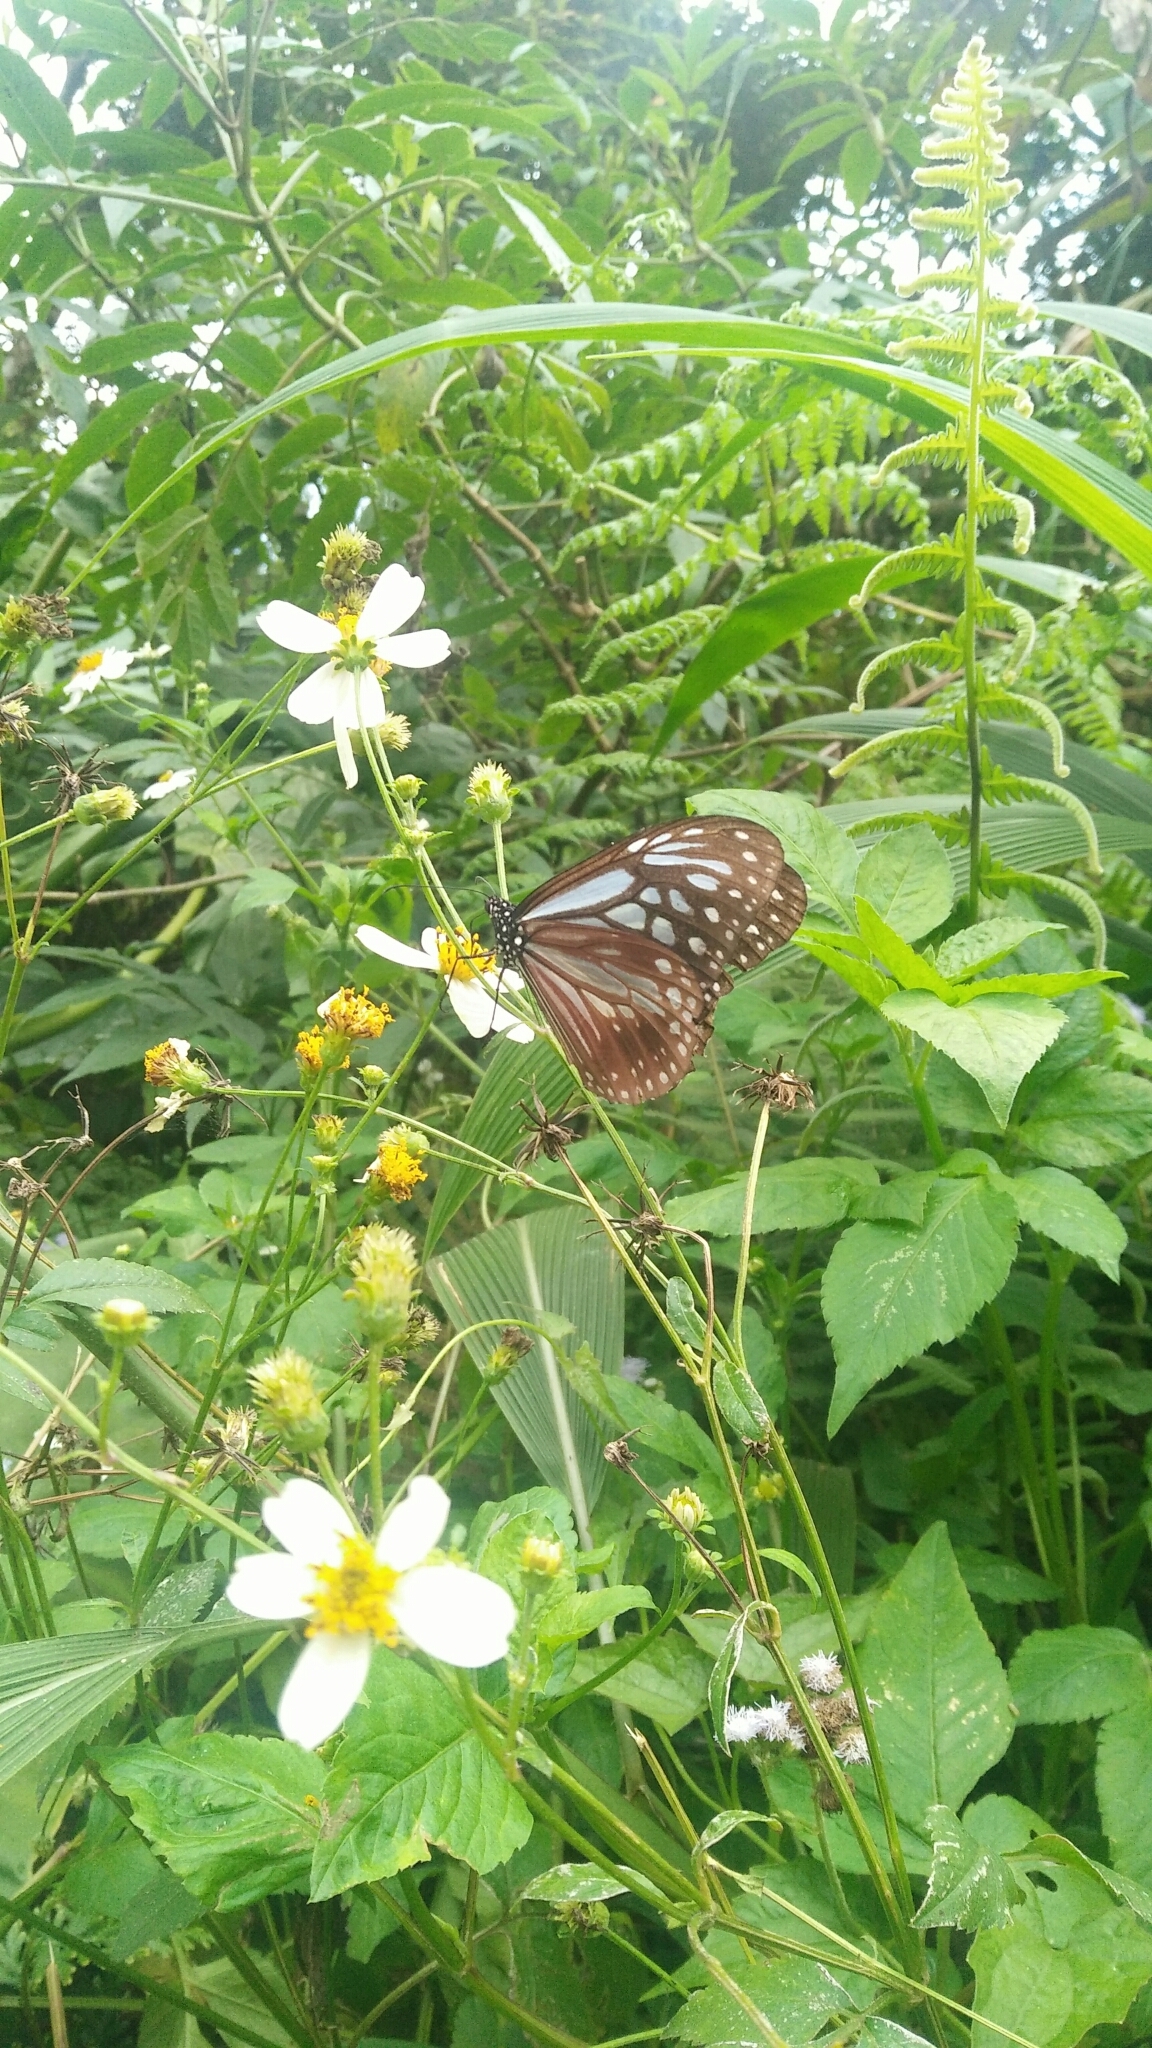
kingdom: Animalia
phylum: Arthropoda
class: Insecta
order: Lepidoptera
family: Nymphalidae
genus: Parantica
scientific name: Parantica melaneus
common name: Chocolate tiger
